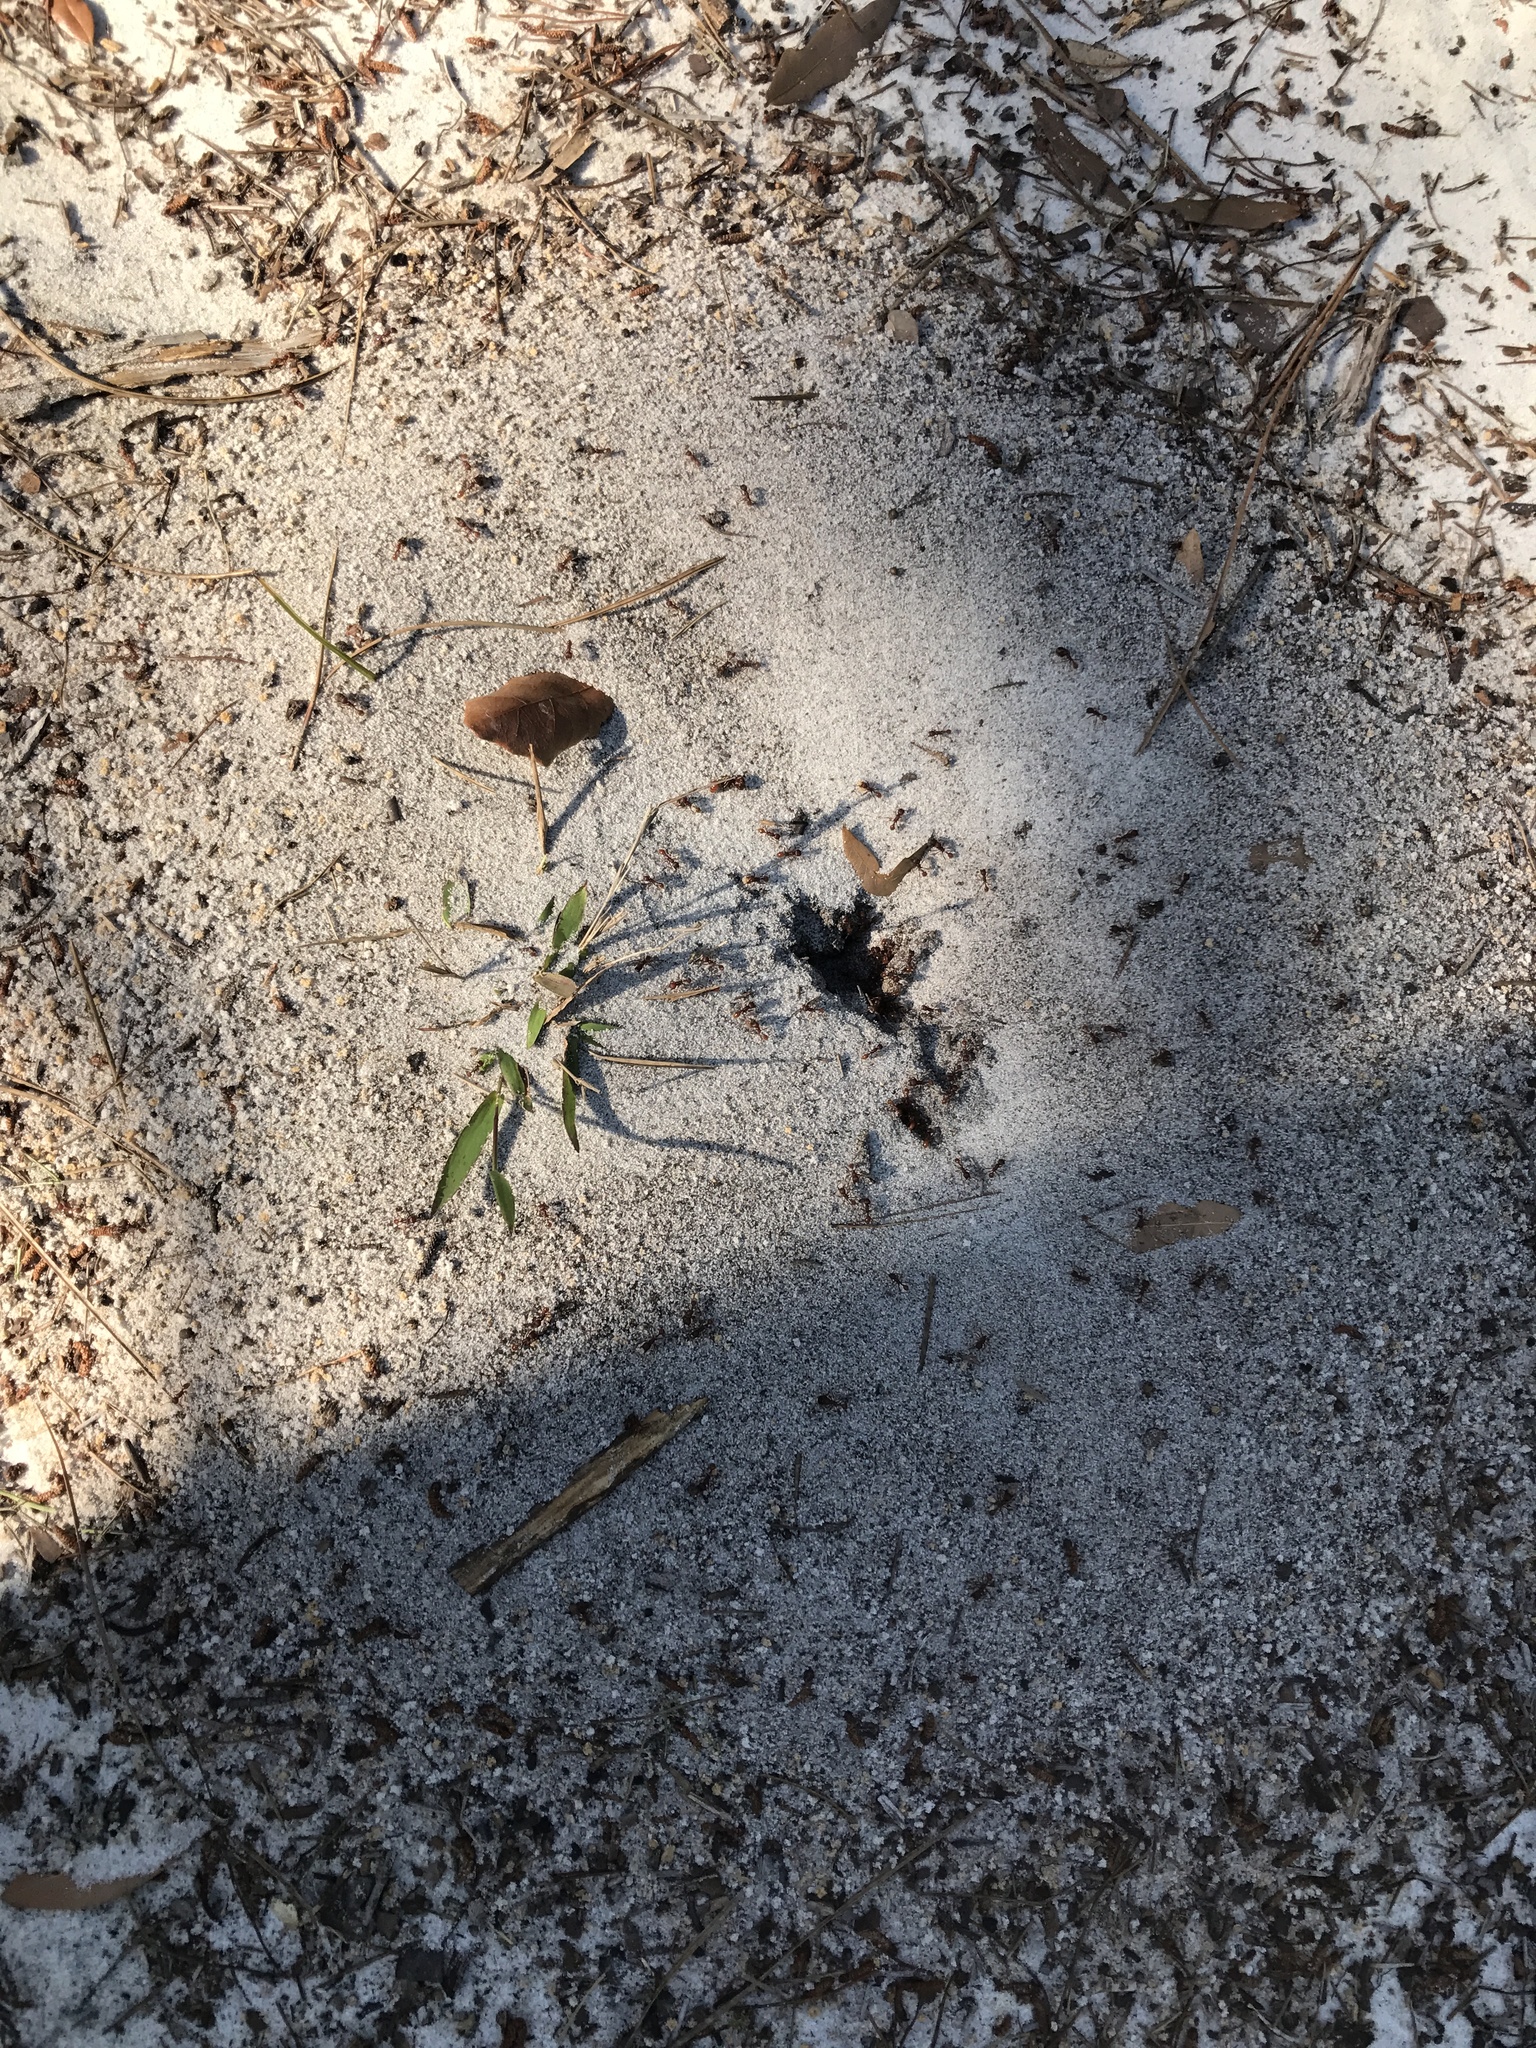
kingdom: Animalia
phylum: Arthropoda
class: Insecta
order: Hymenoptera
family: Formicidae
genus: Pogonomyrmex
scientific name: Pogonomyrmex badius
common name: Florida harvester ant
